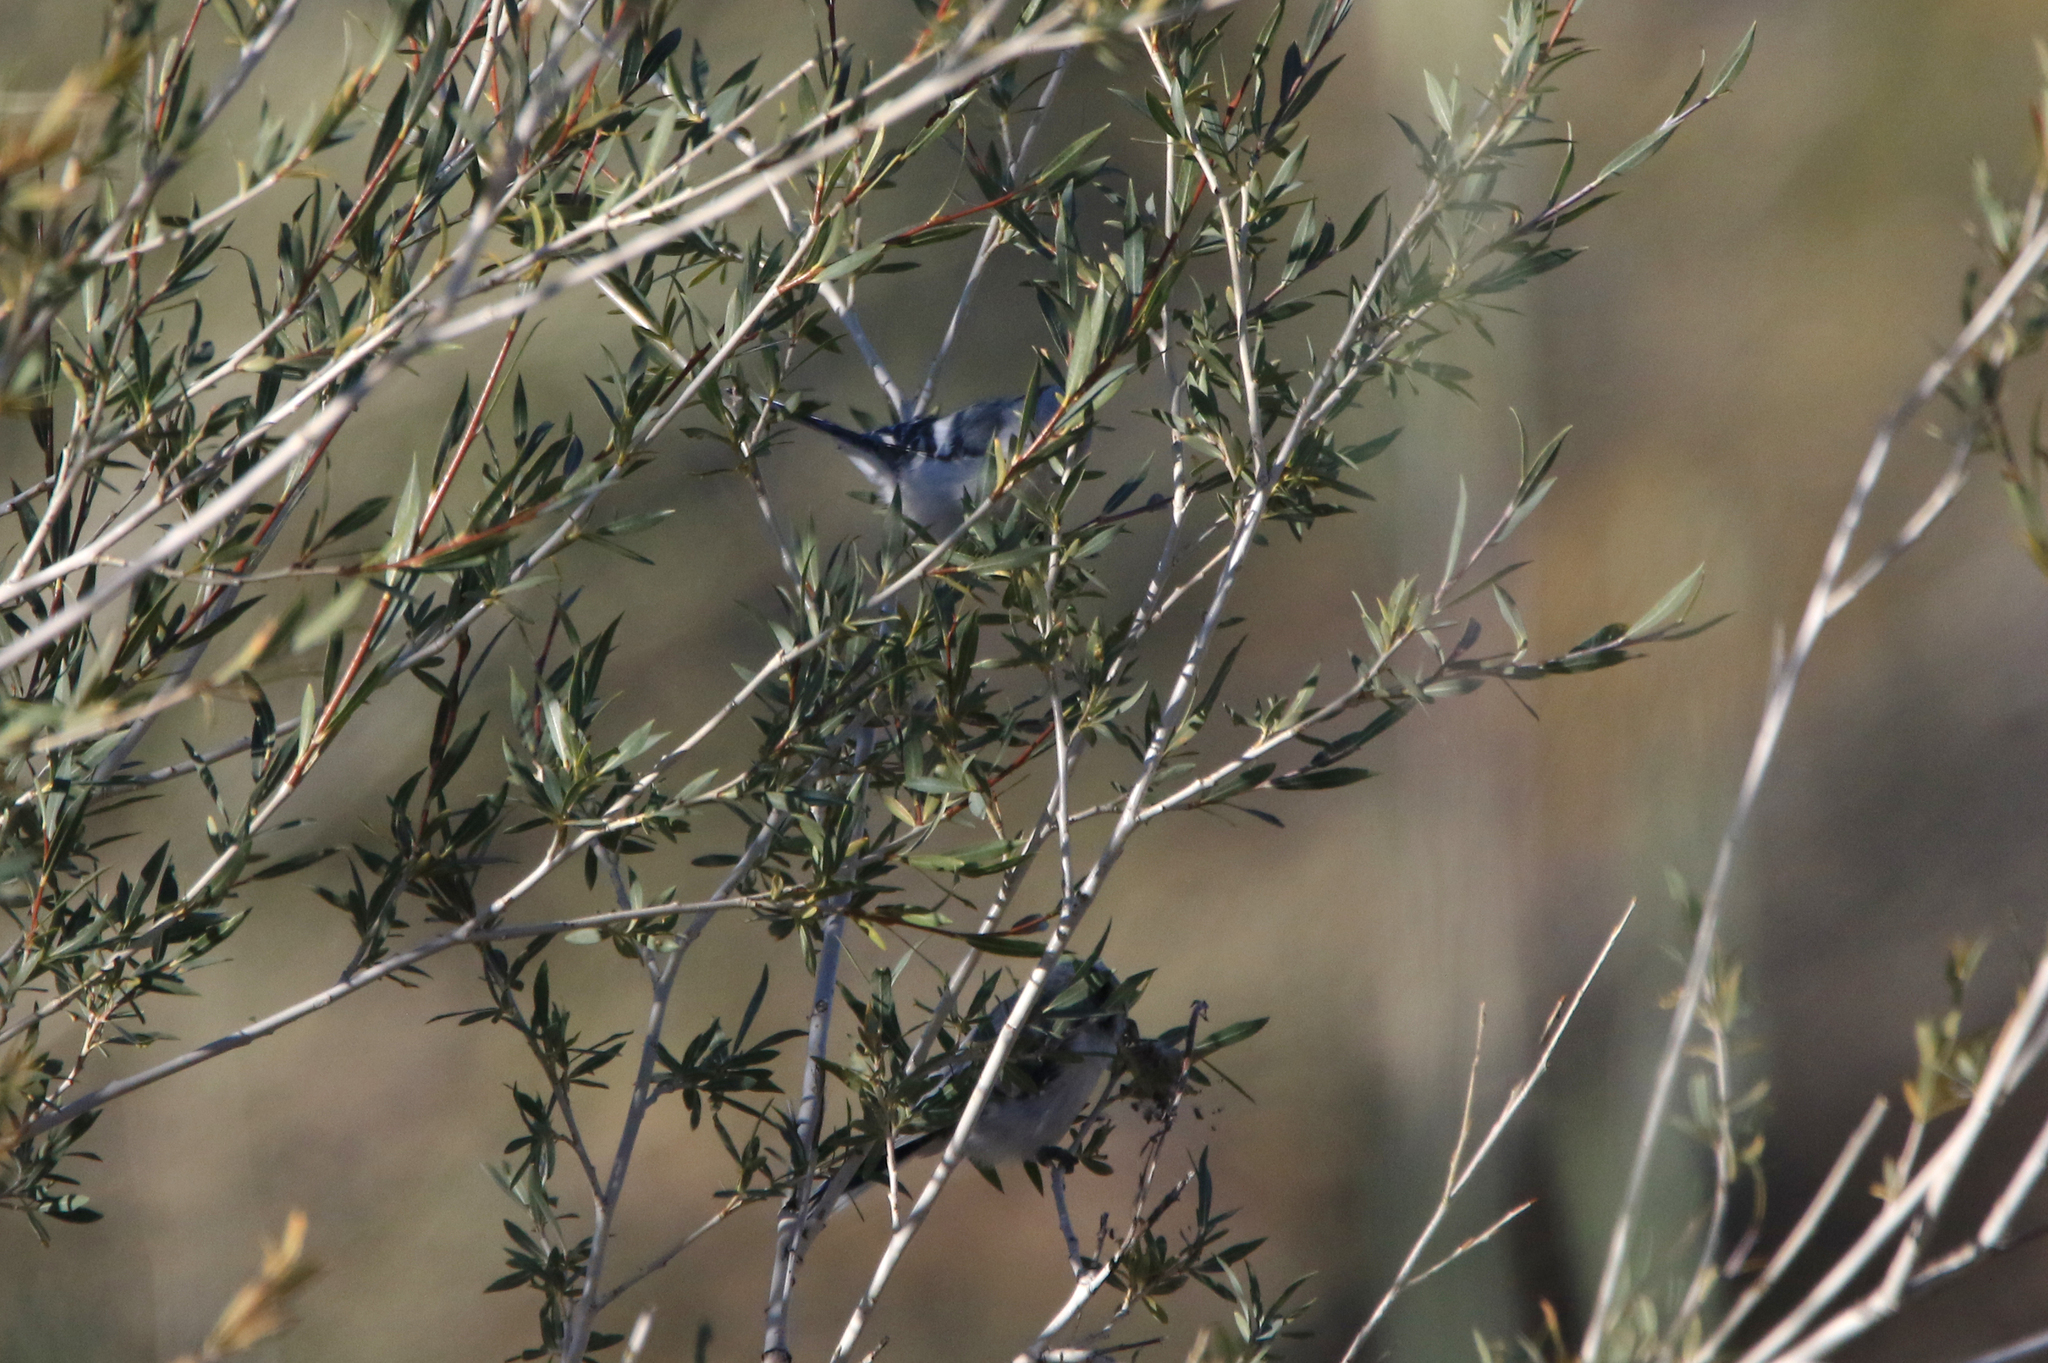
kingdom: Animalia
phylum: Chordata
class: Aves
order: Passeriformes
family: Paridae
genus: Cyanistes
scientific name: Cyanistes cyanus
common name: Azure tit
